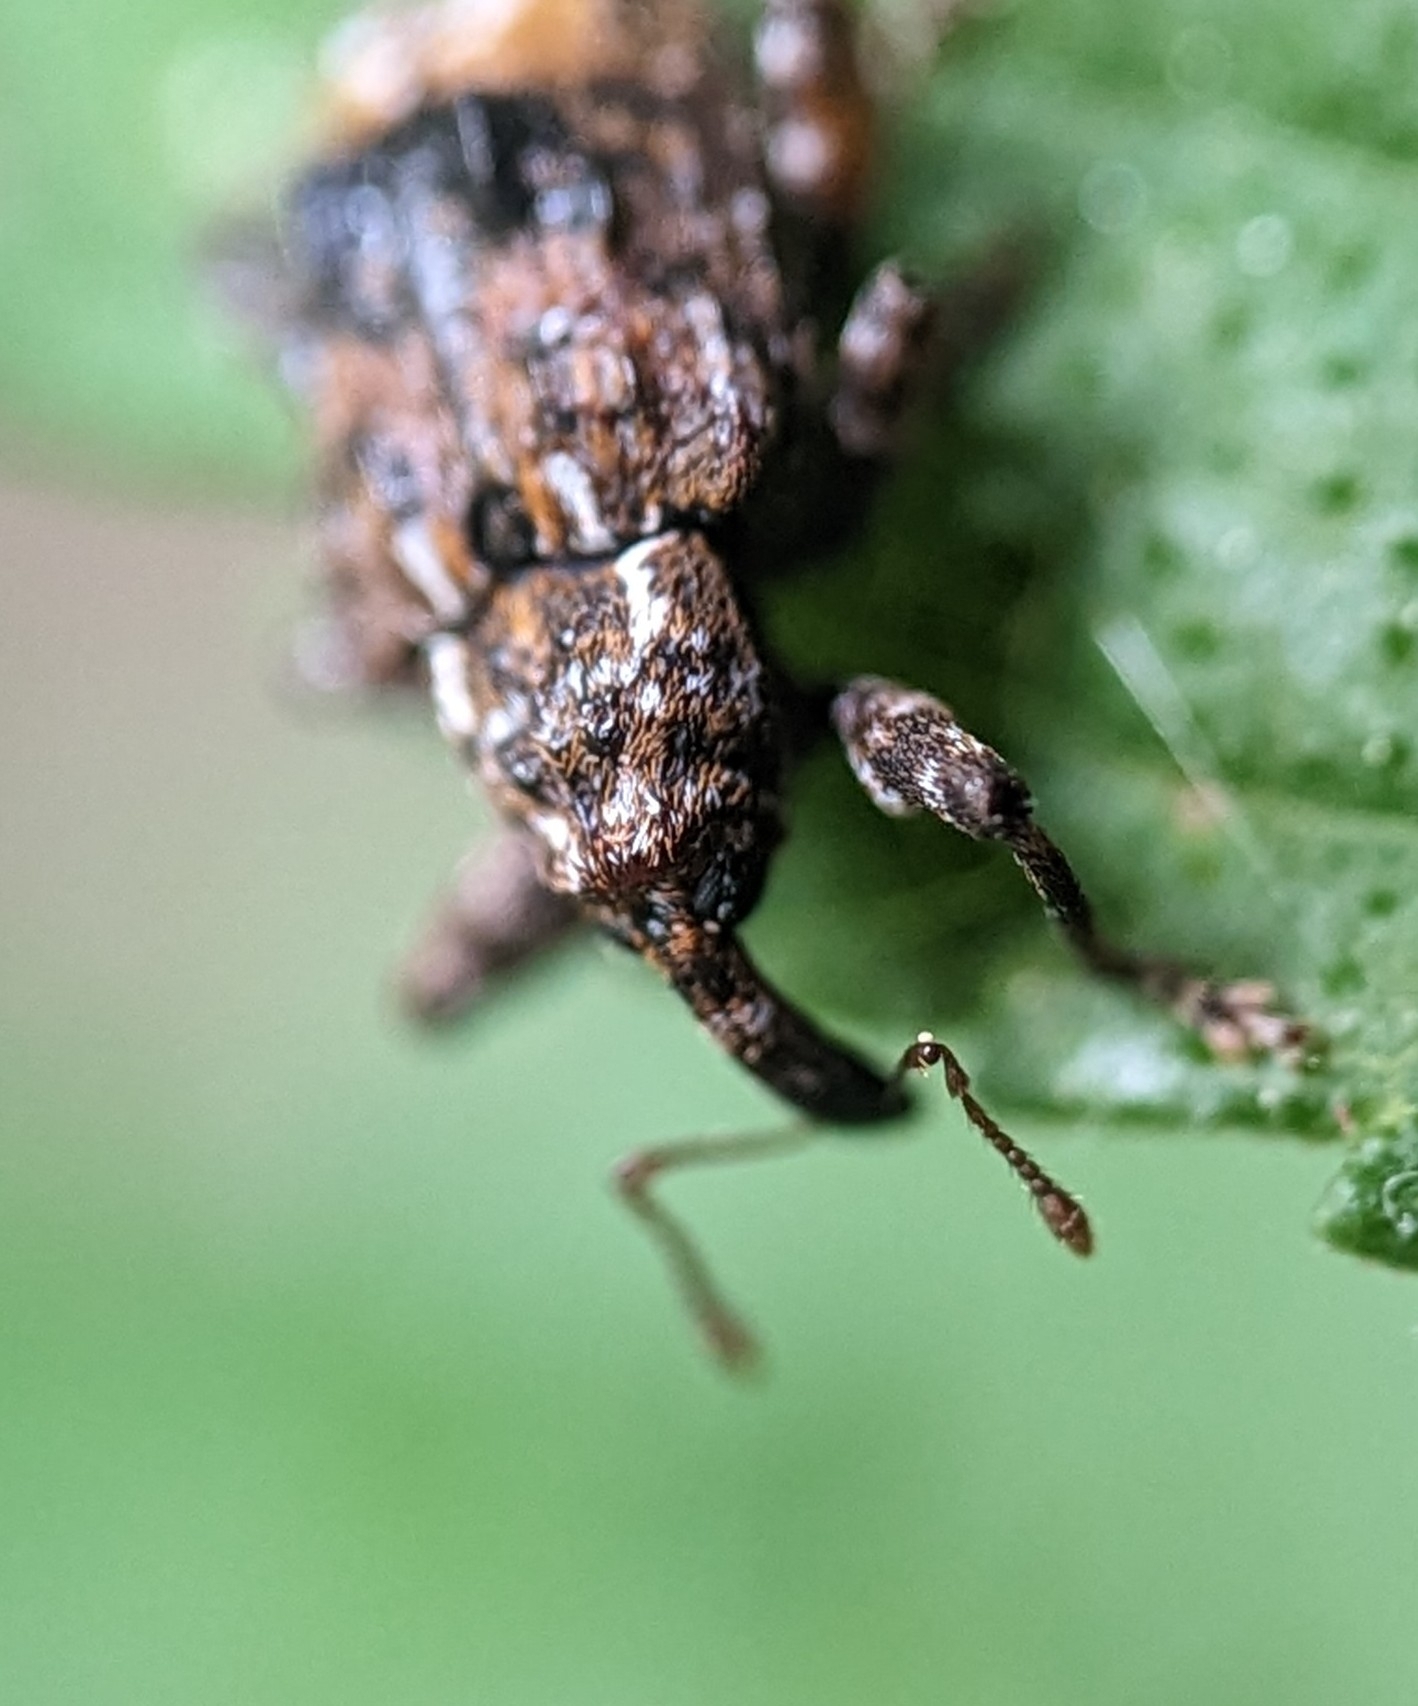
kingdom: Animalia
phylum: Arthropoda
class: Insecta
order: Coleoptera
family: Curculionidae
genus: Conotrachelus
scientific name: Conotrachelus nenuphar
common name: Plum curculio
